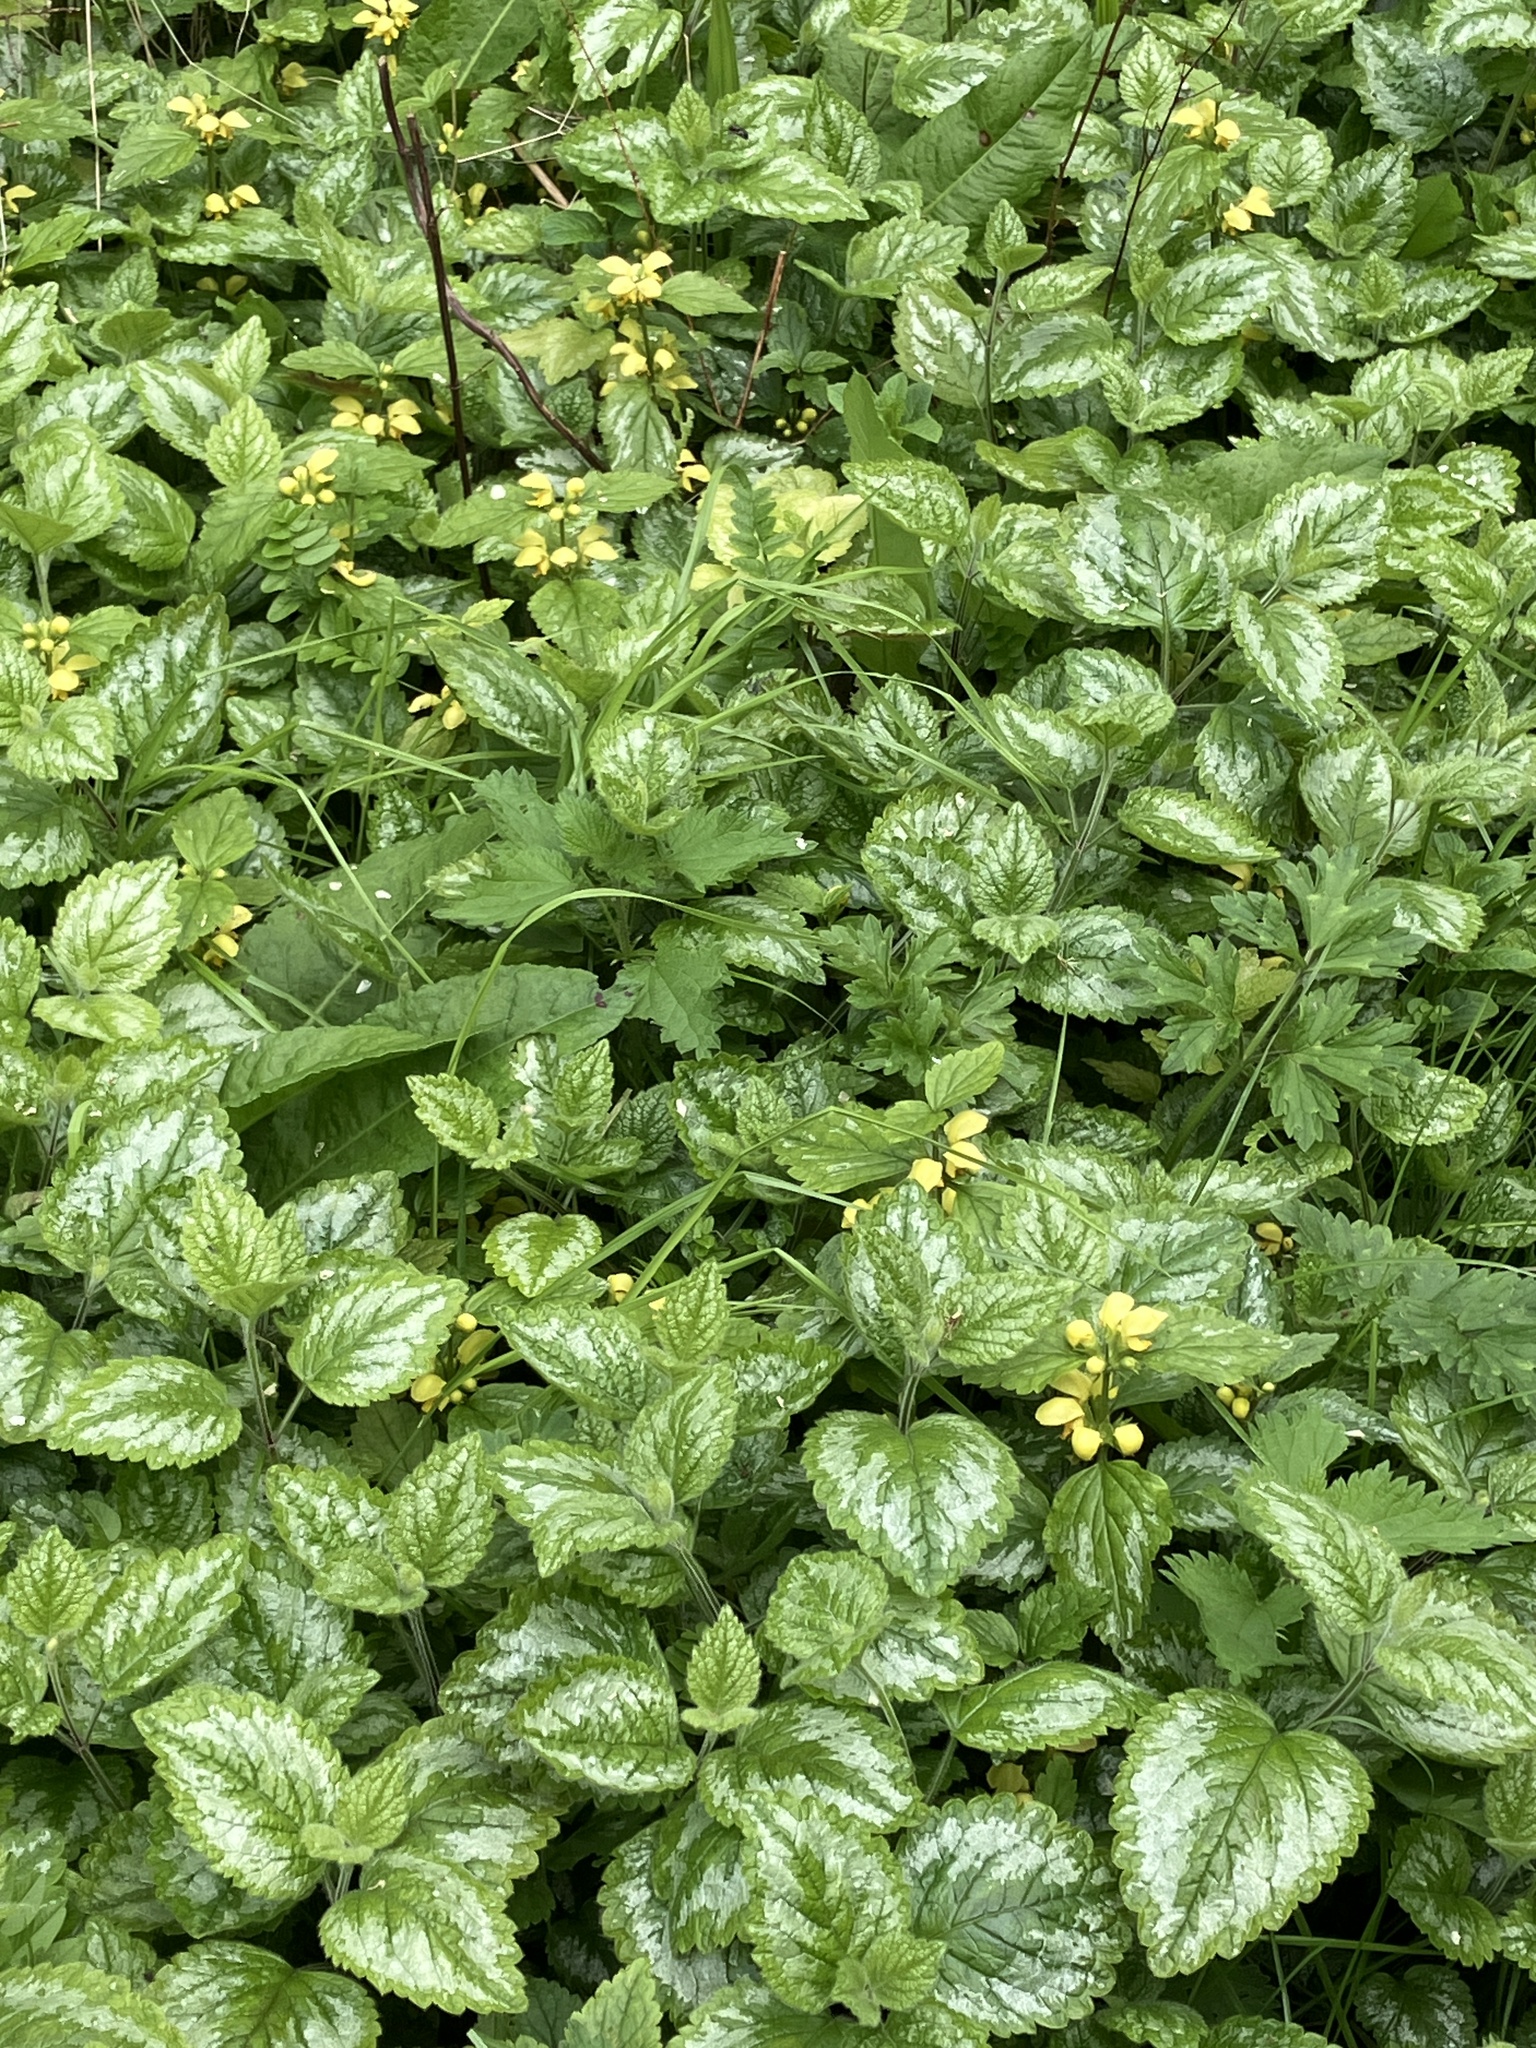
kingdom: Plantae
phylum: Tracheophyta
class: Magnoliopsida
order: Lamiales
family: Lamiaceae
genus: Lamium
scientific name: Lamium galeobdolon
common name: Yellow archangel
